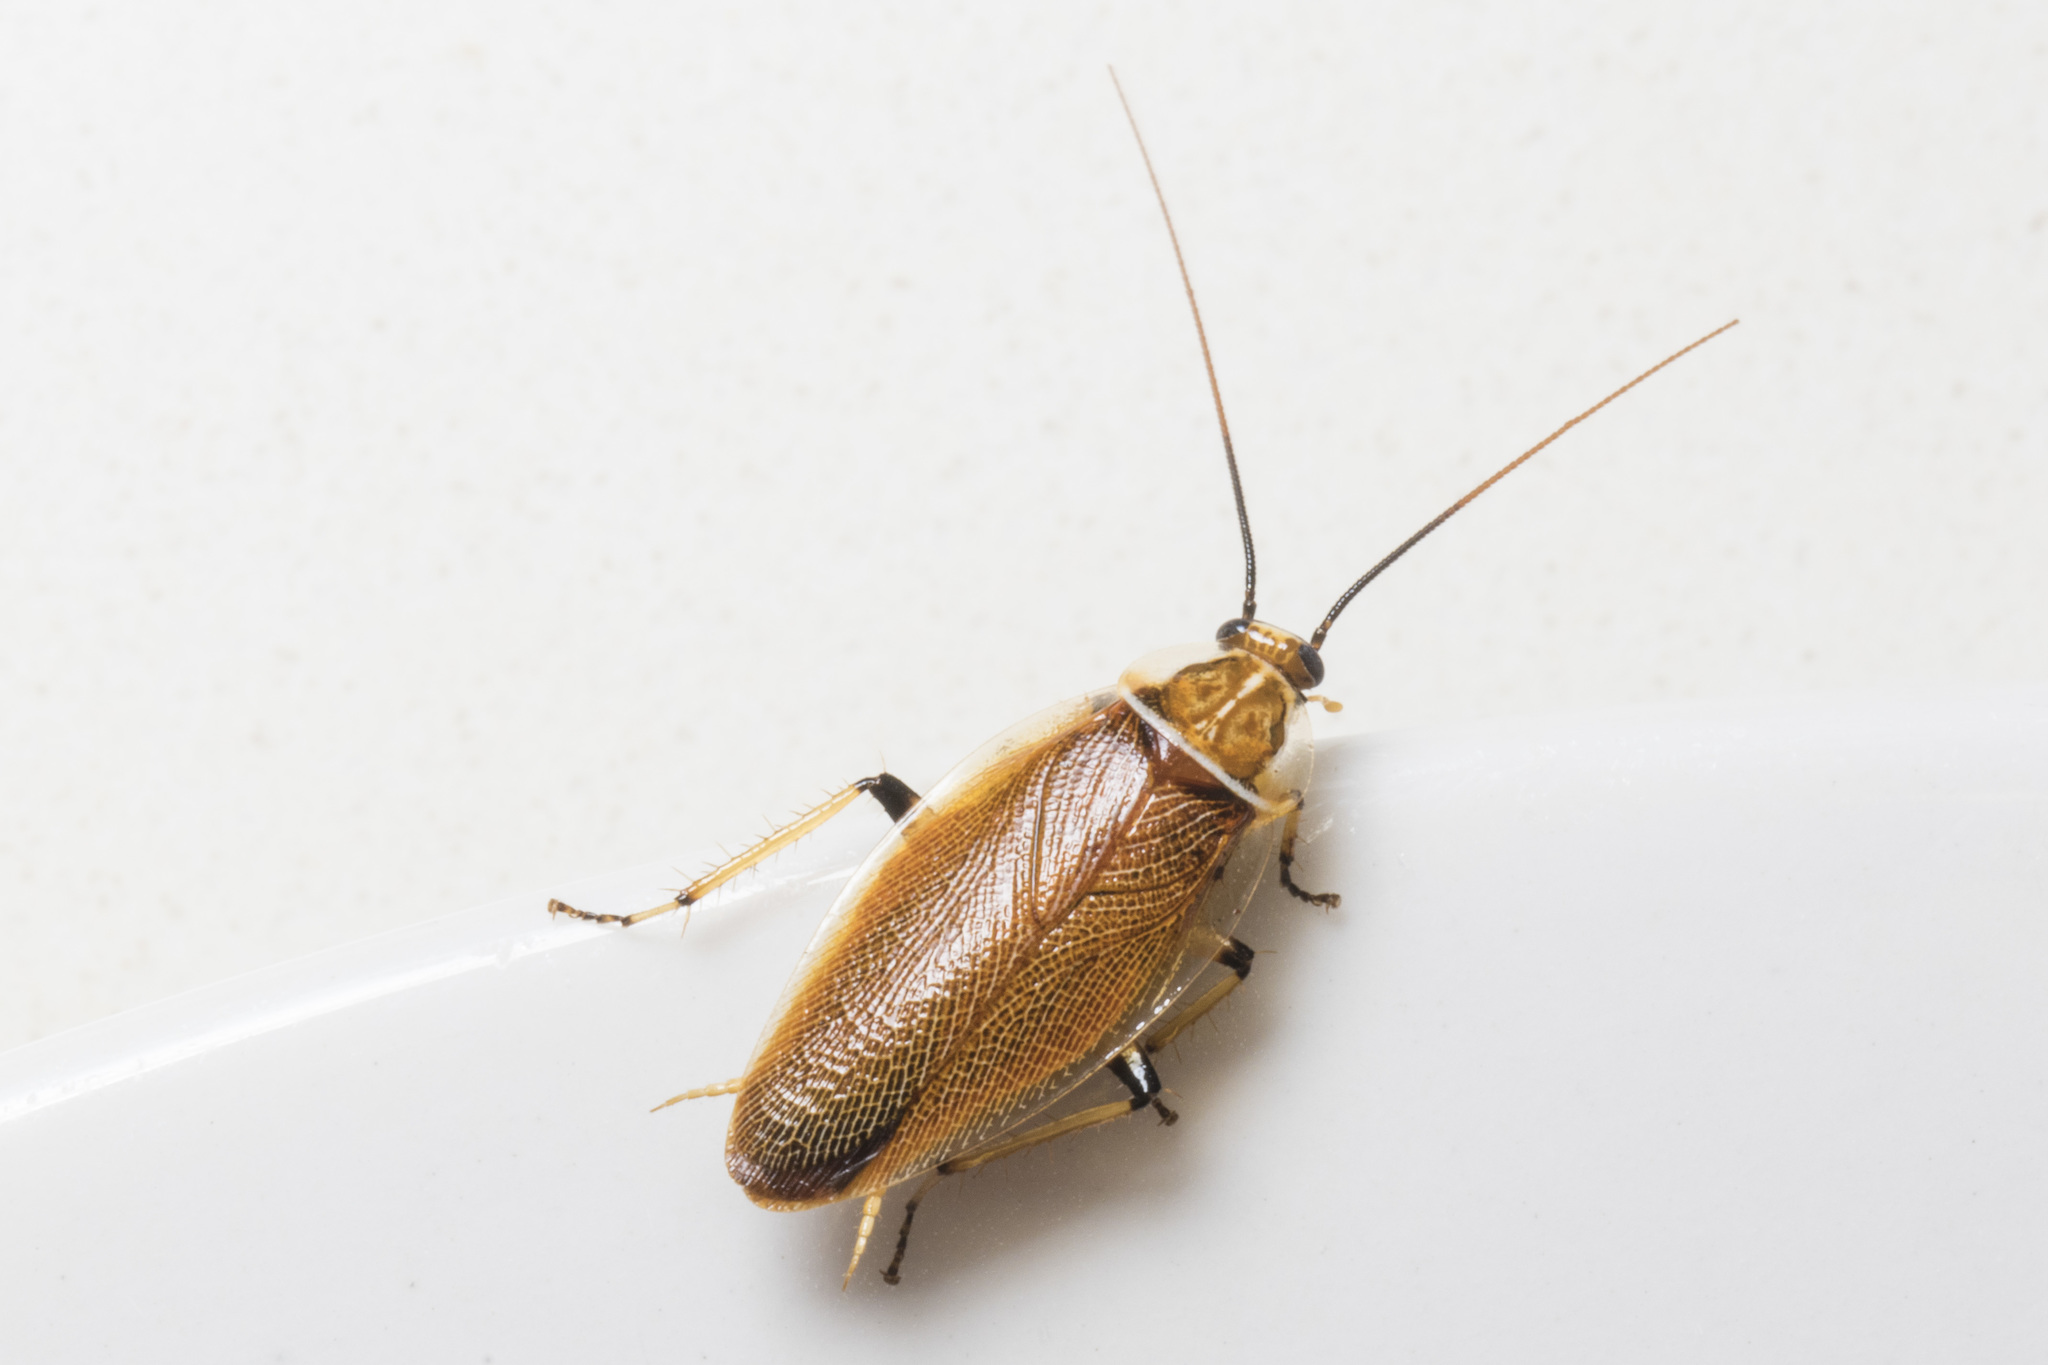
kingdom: Animalia
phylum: Arthropoda
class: Insecta
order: Blattodea
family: Ectobiidae
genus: Balta
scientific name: Balta bicolor
